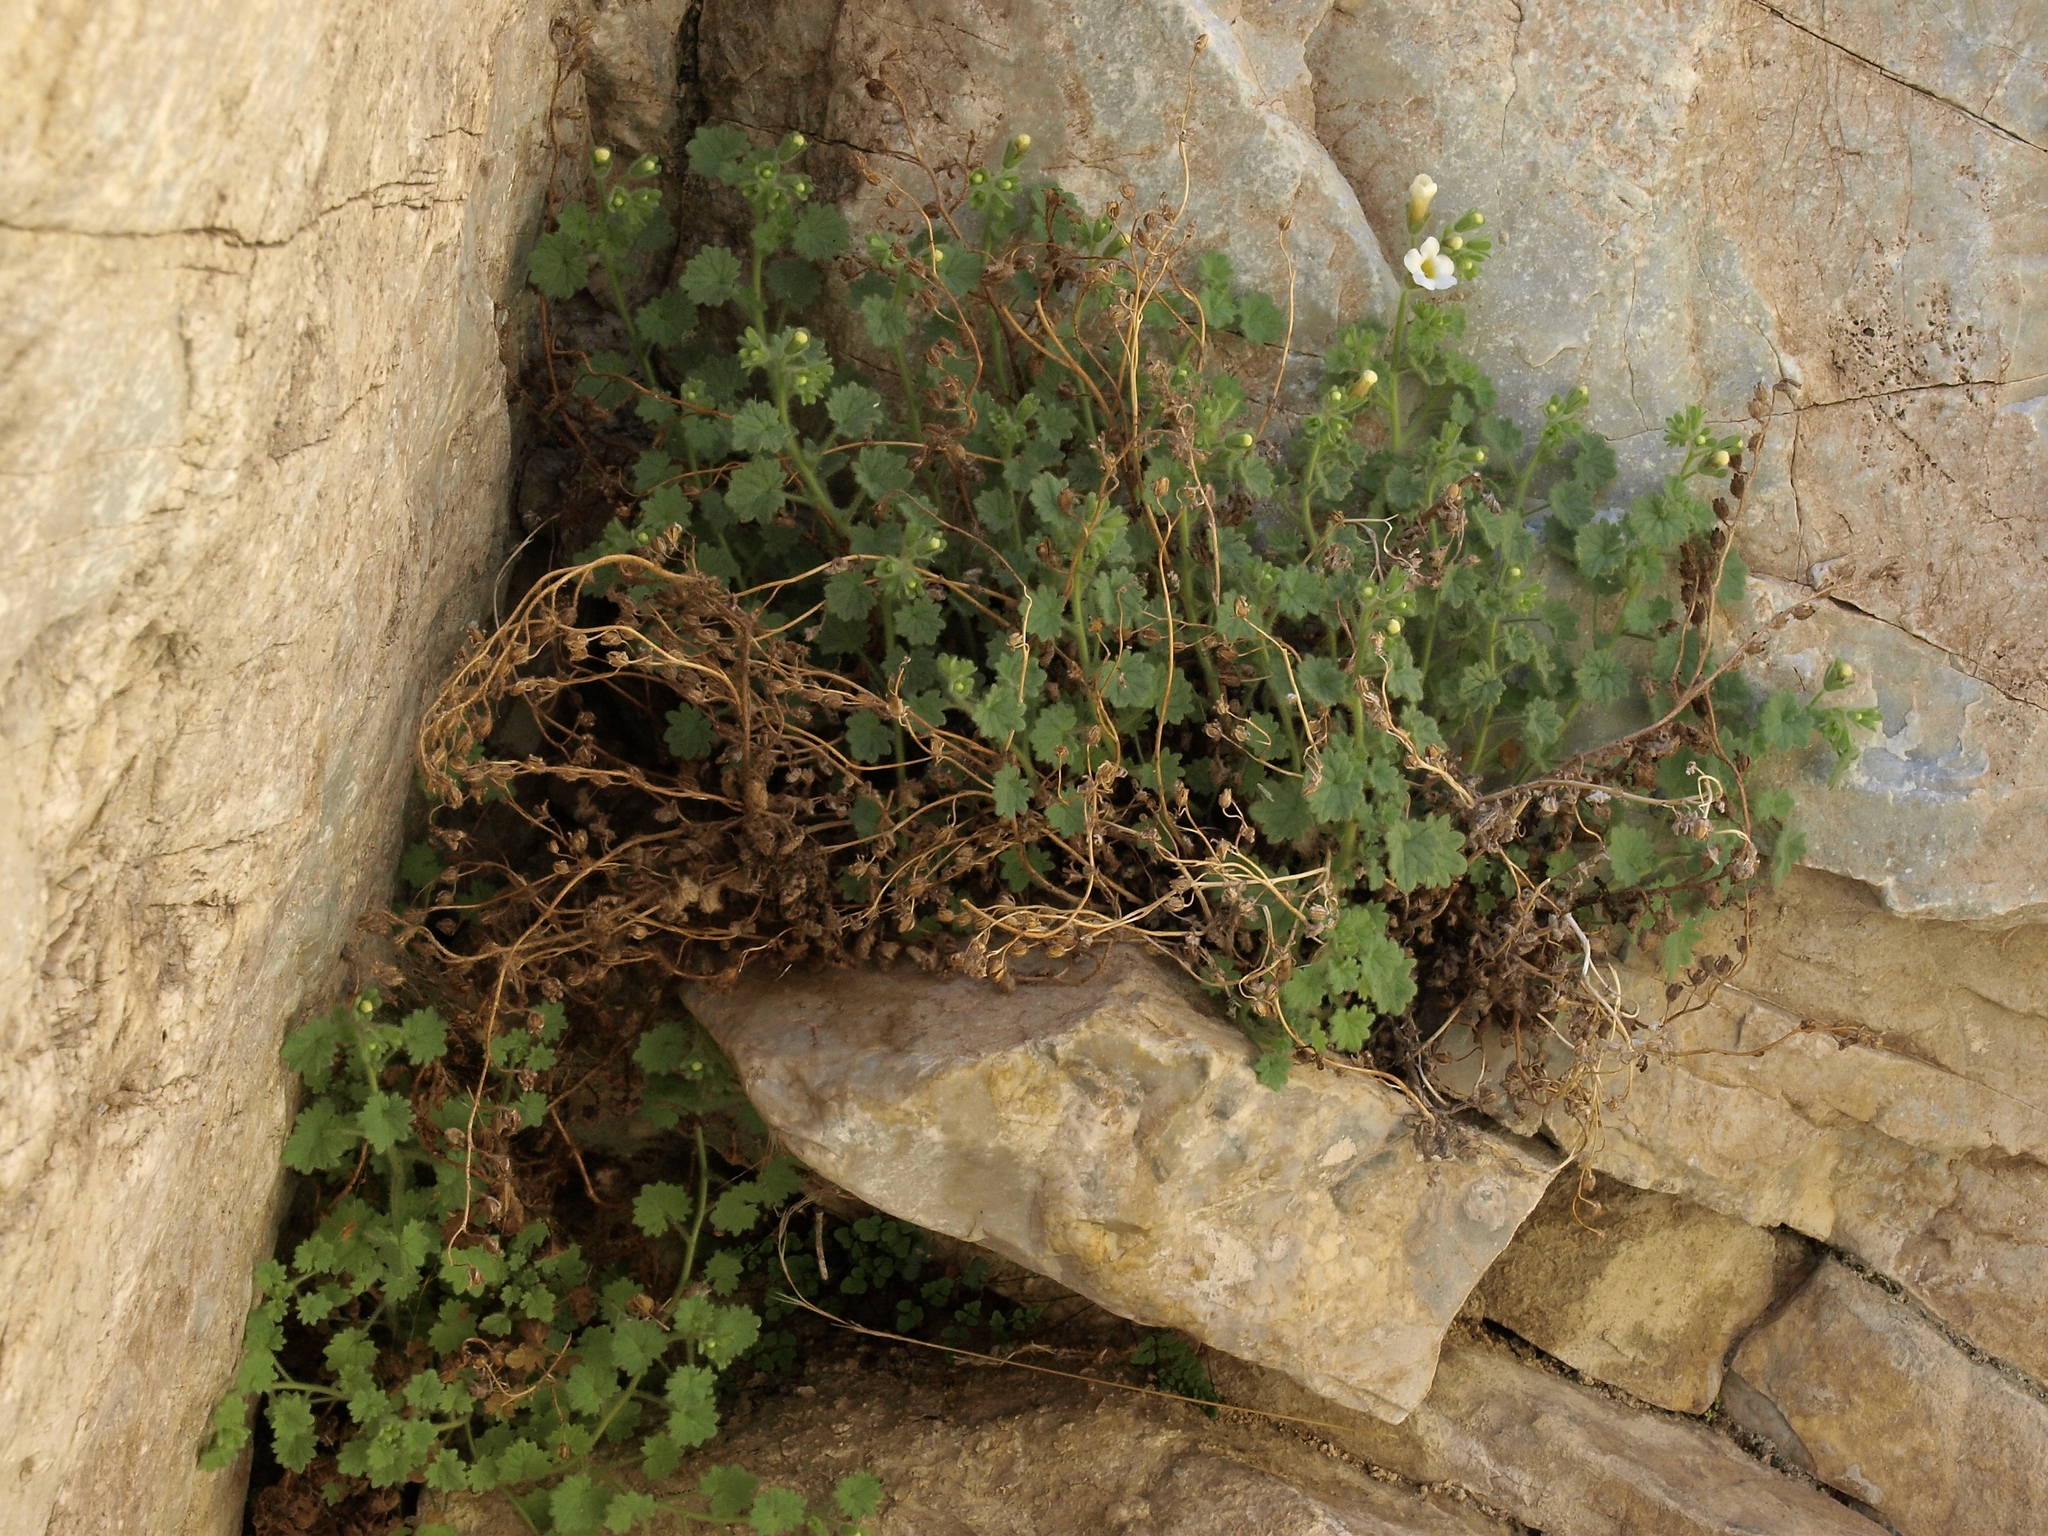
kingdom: Plantae
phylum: Tracheophyta
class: Magnoliopsida
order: Boraginales
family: Hydrophyllaceae
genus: Phacelia
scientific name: Phacelia perityloides
